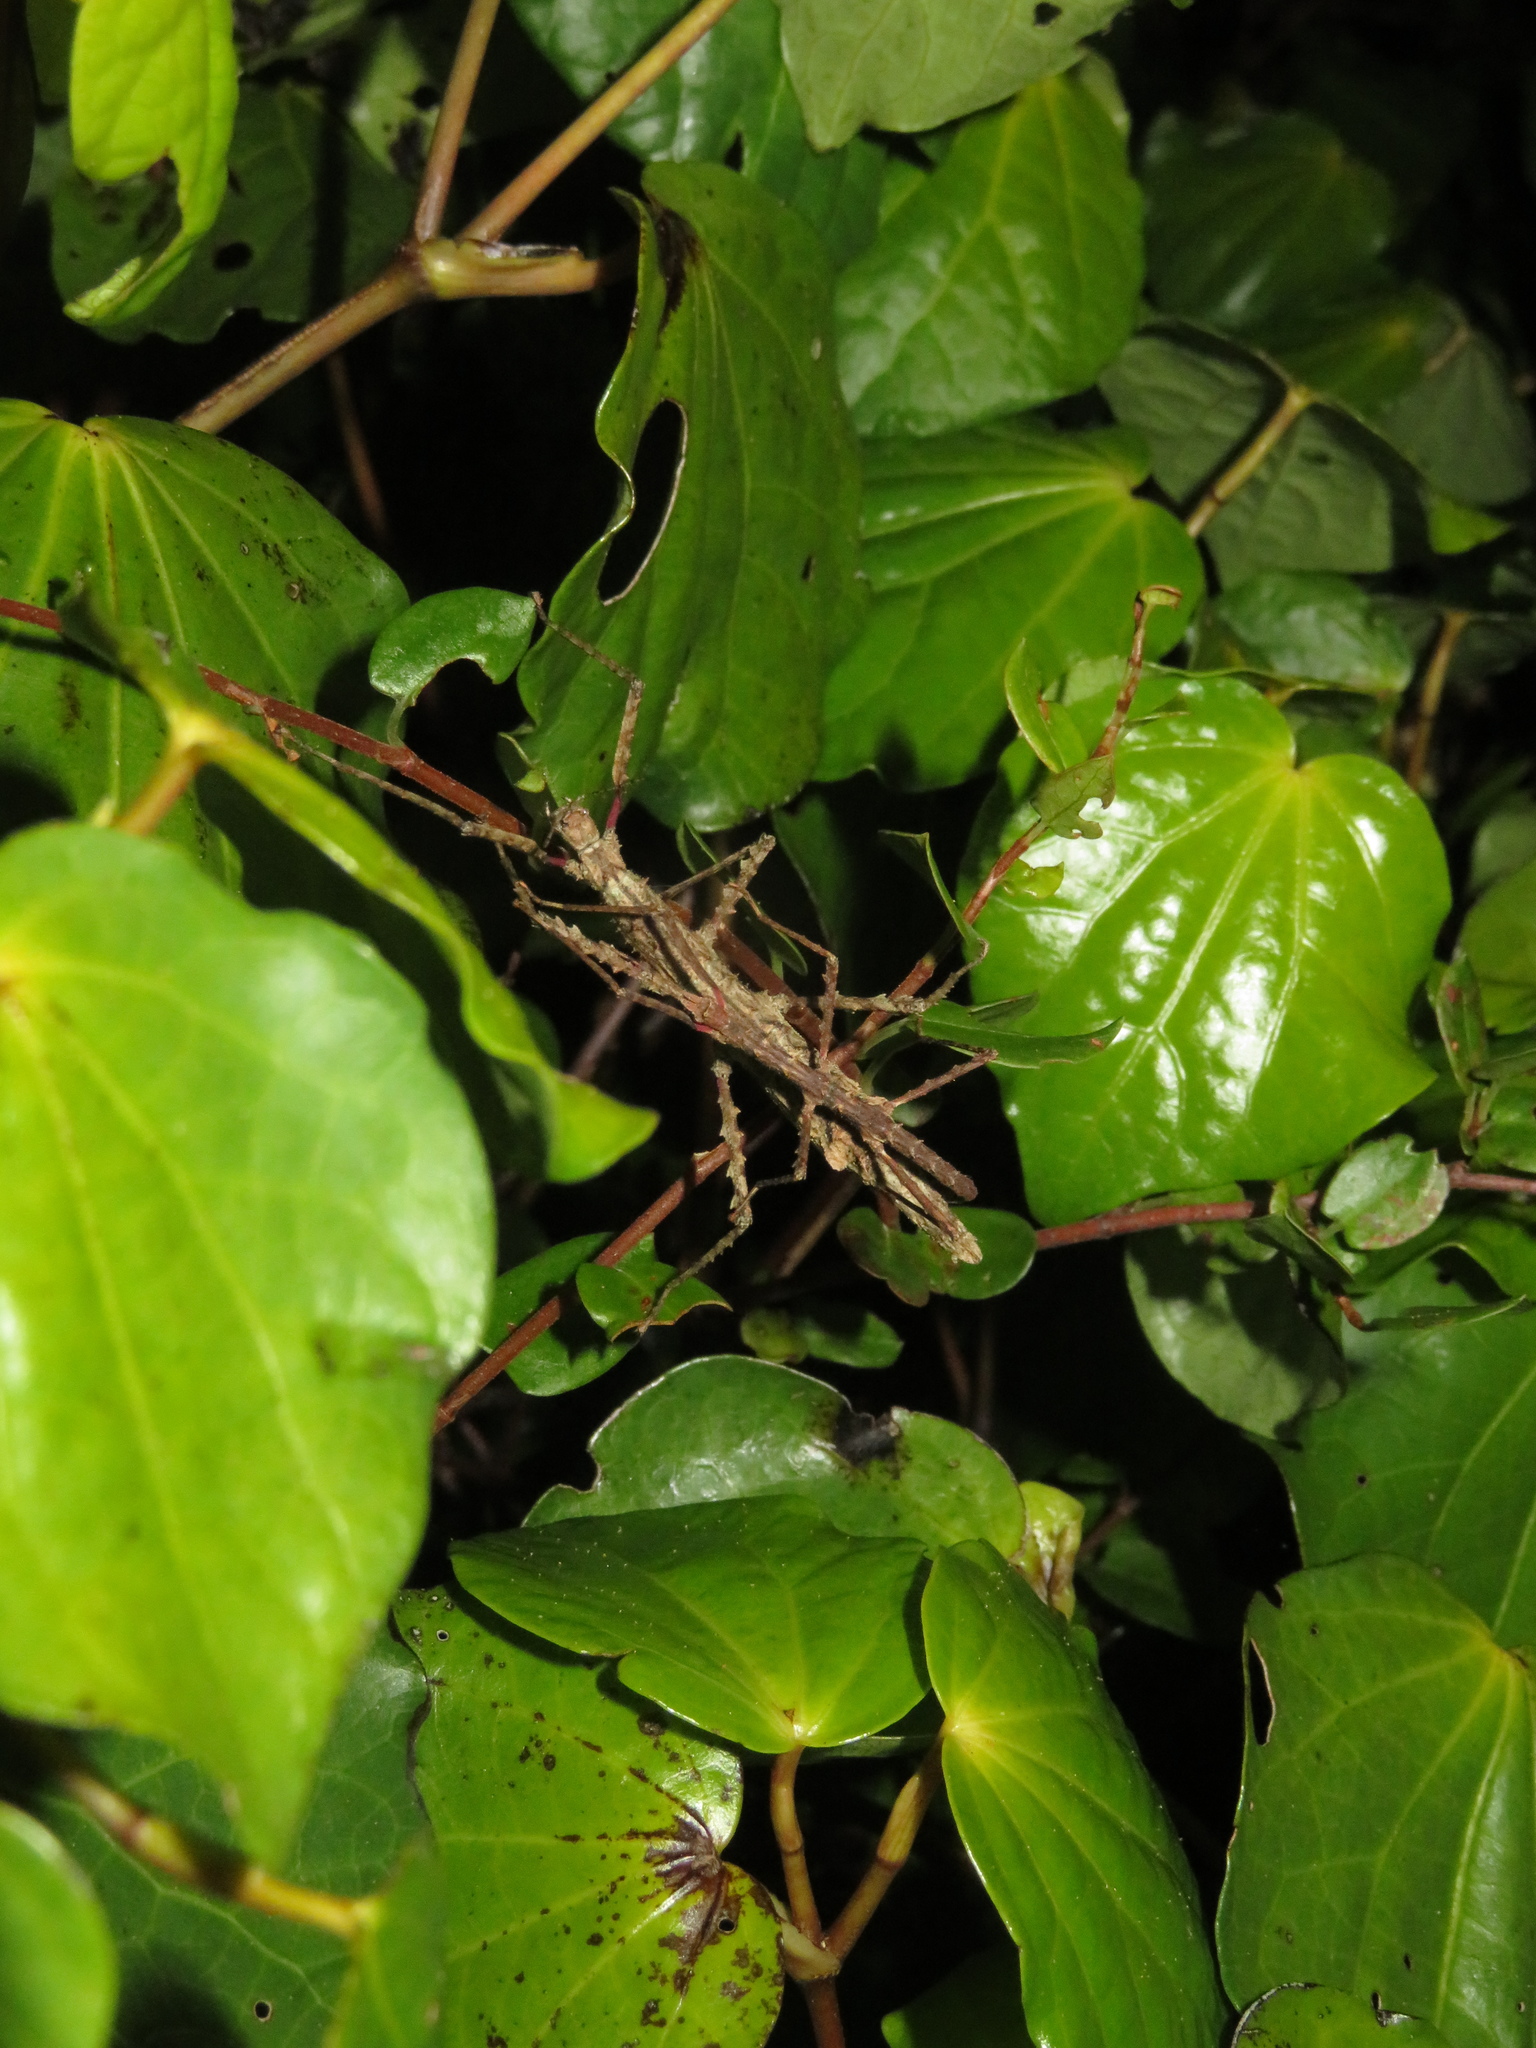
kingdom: Animalia
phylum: Arthropoda
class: Insecta
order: Phasmida
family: Phasmatidae
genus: Micrarchus
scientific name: Micrarchus hystriculeus
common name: The lesser spiny stick insect
